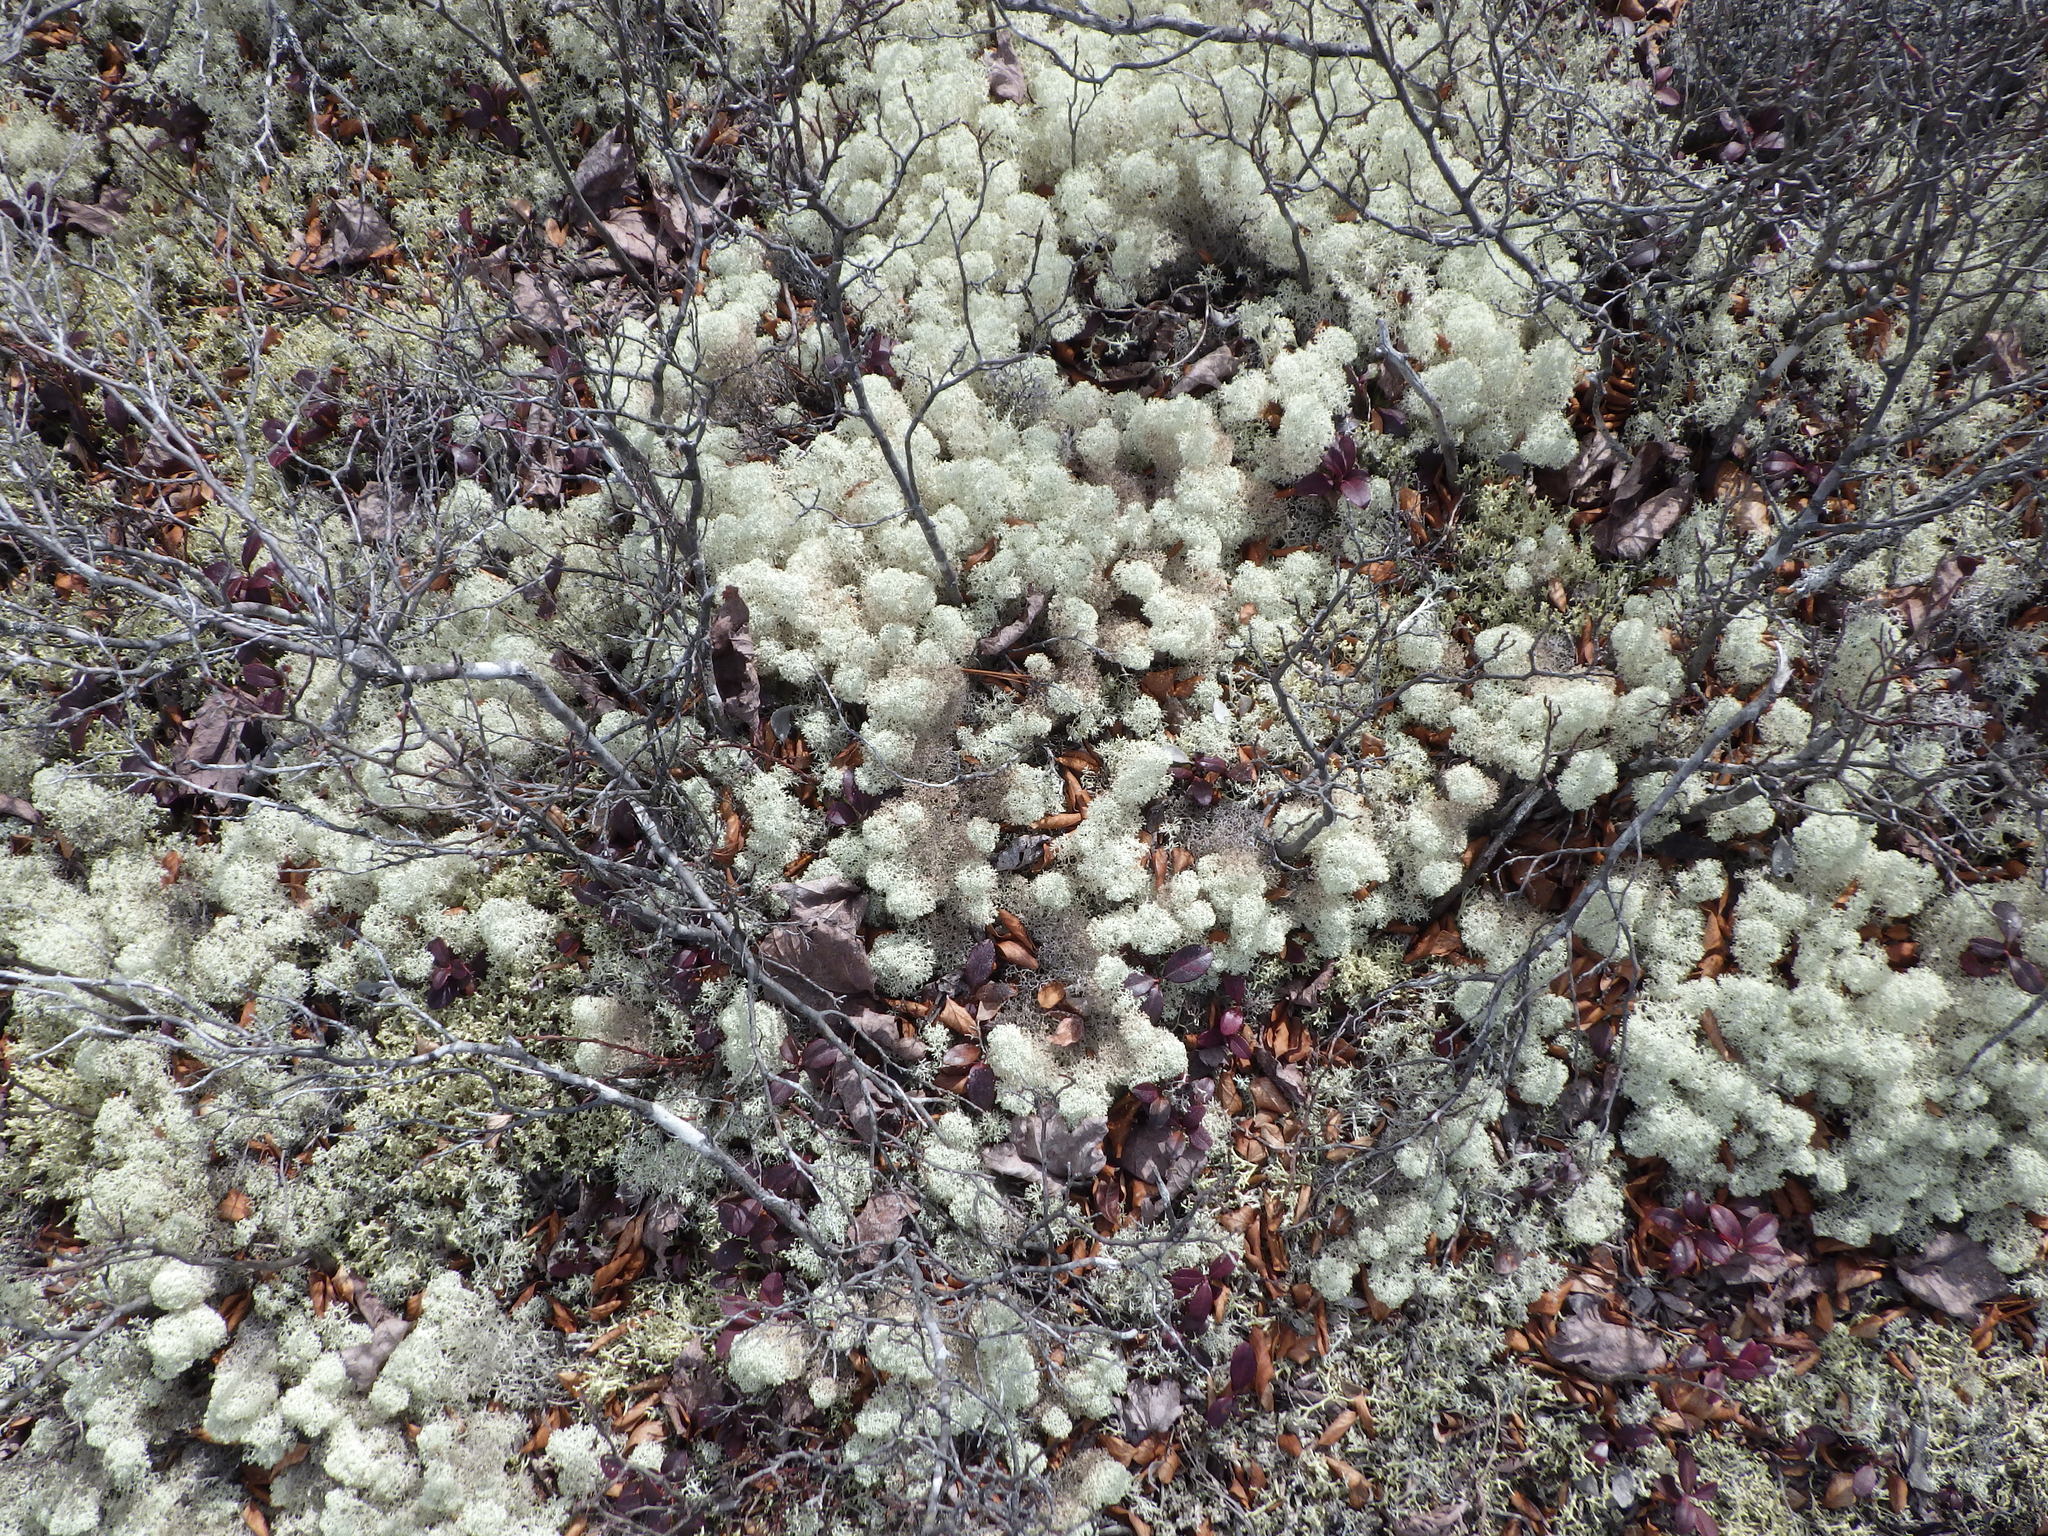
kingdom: Fungi
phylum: Ascomycota
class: Lecanoromycetes
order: Lecanorales
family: Cladoniaceae
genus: Cladonia
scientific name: Cladonia stellaris
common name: Star-tipped reindeer lichen
